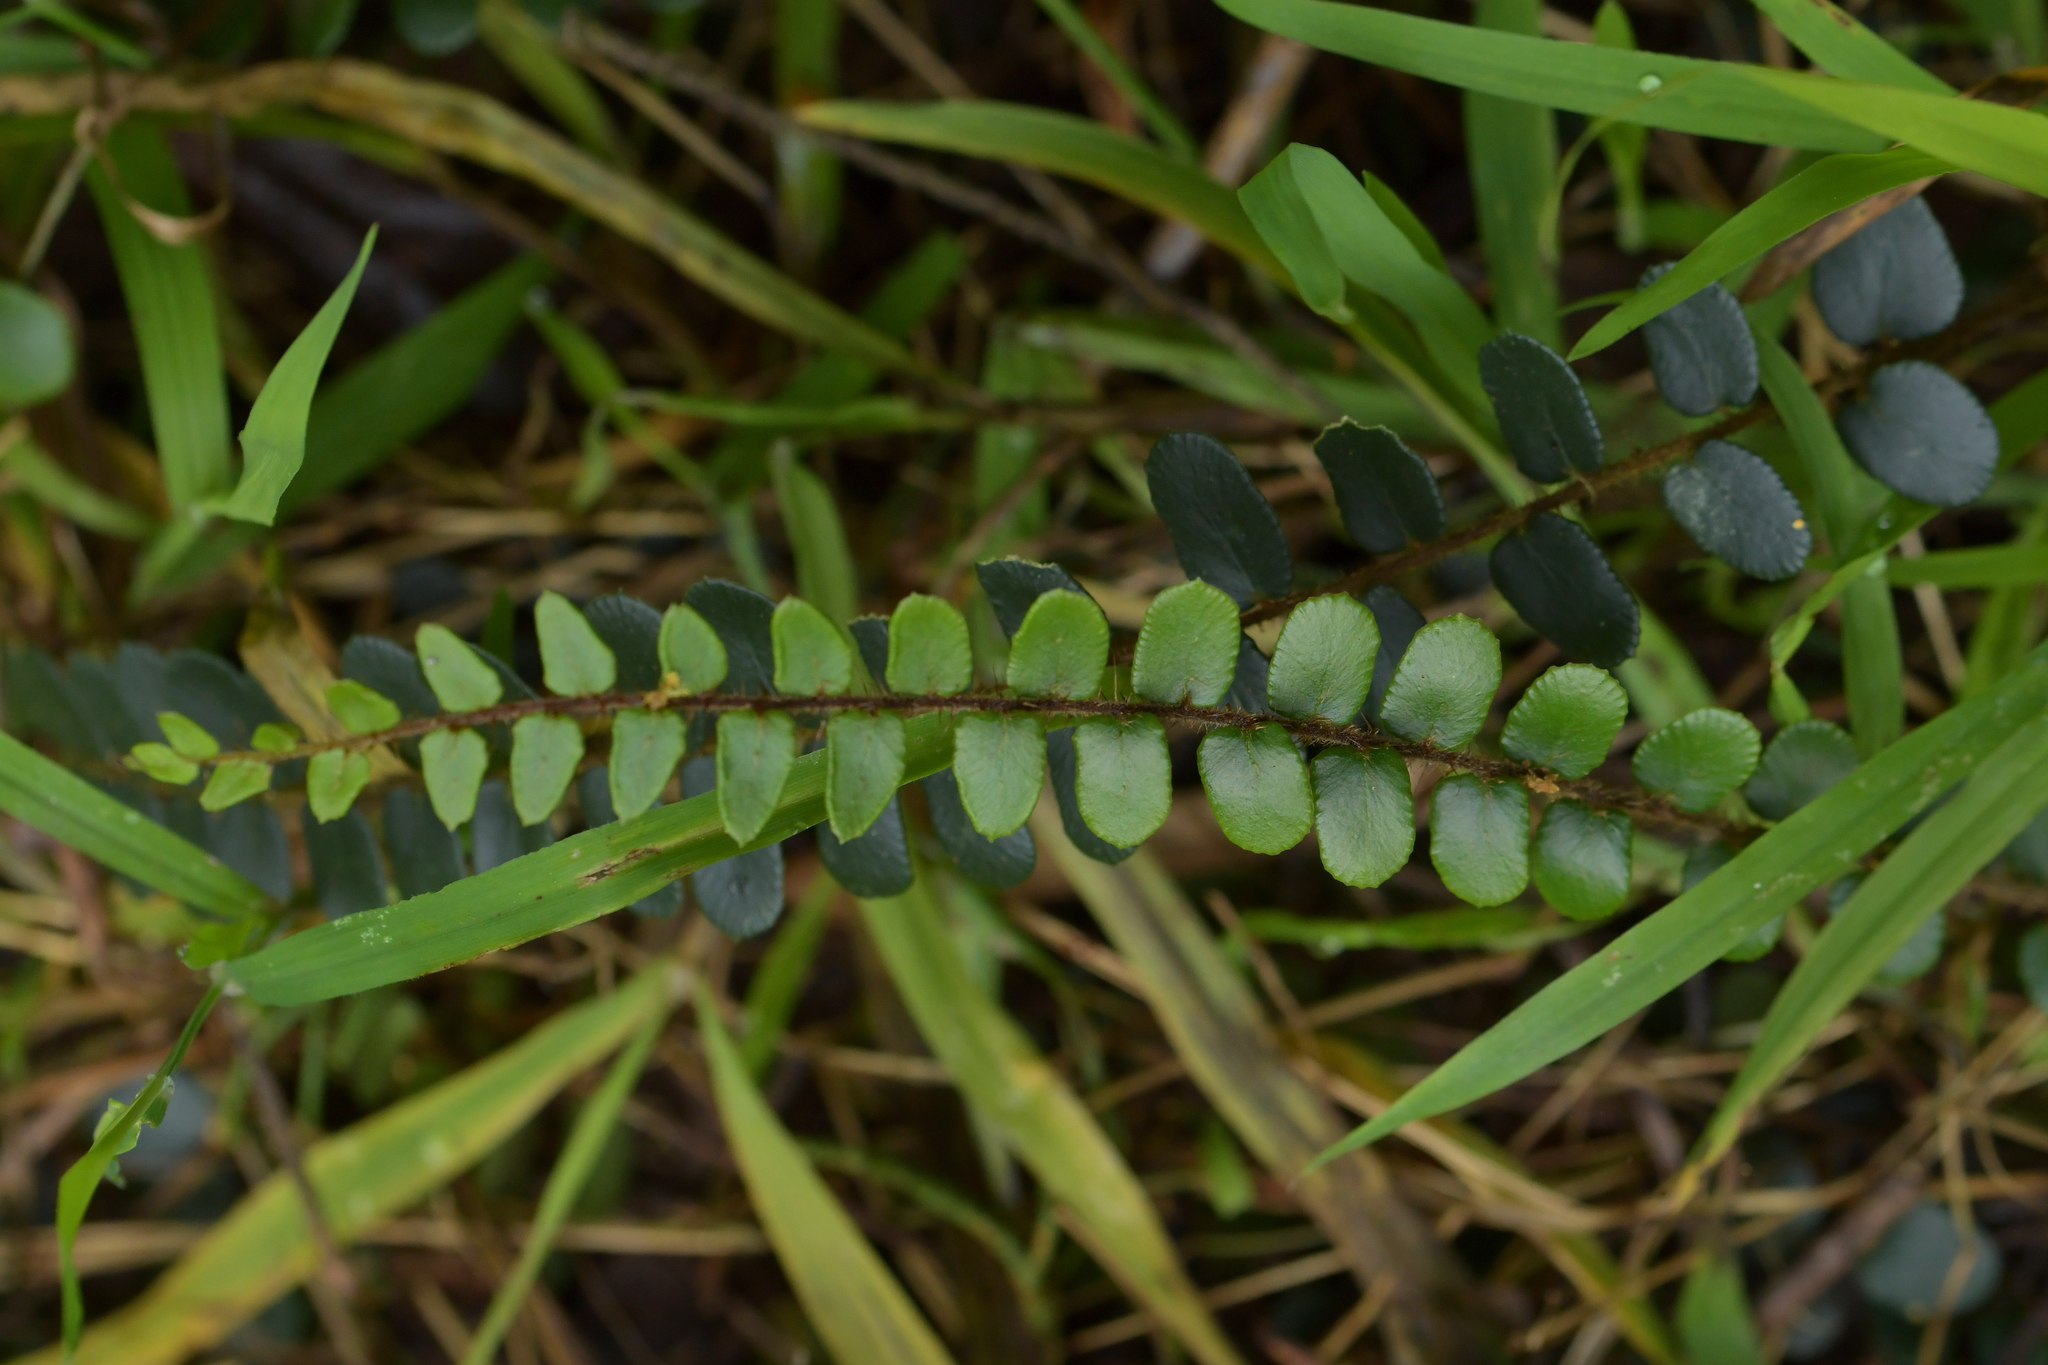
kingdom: Plantae
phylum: Tracheophyta
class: Polypodiopsida
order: Polypodiales
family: Pteridaceae
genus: Pellaea
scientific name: Pellaea rotundifolia
